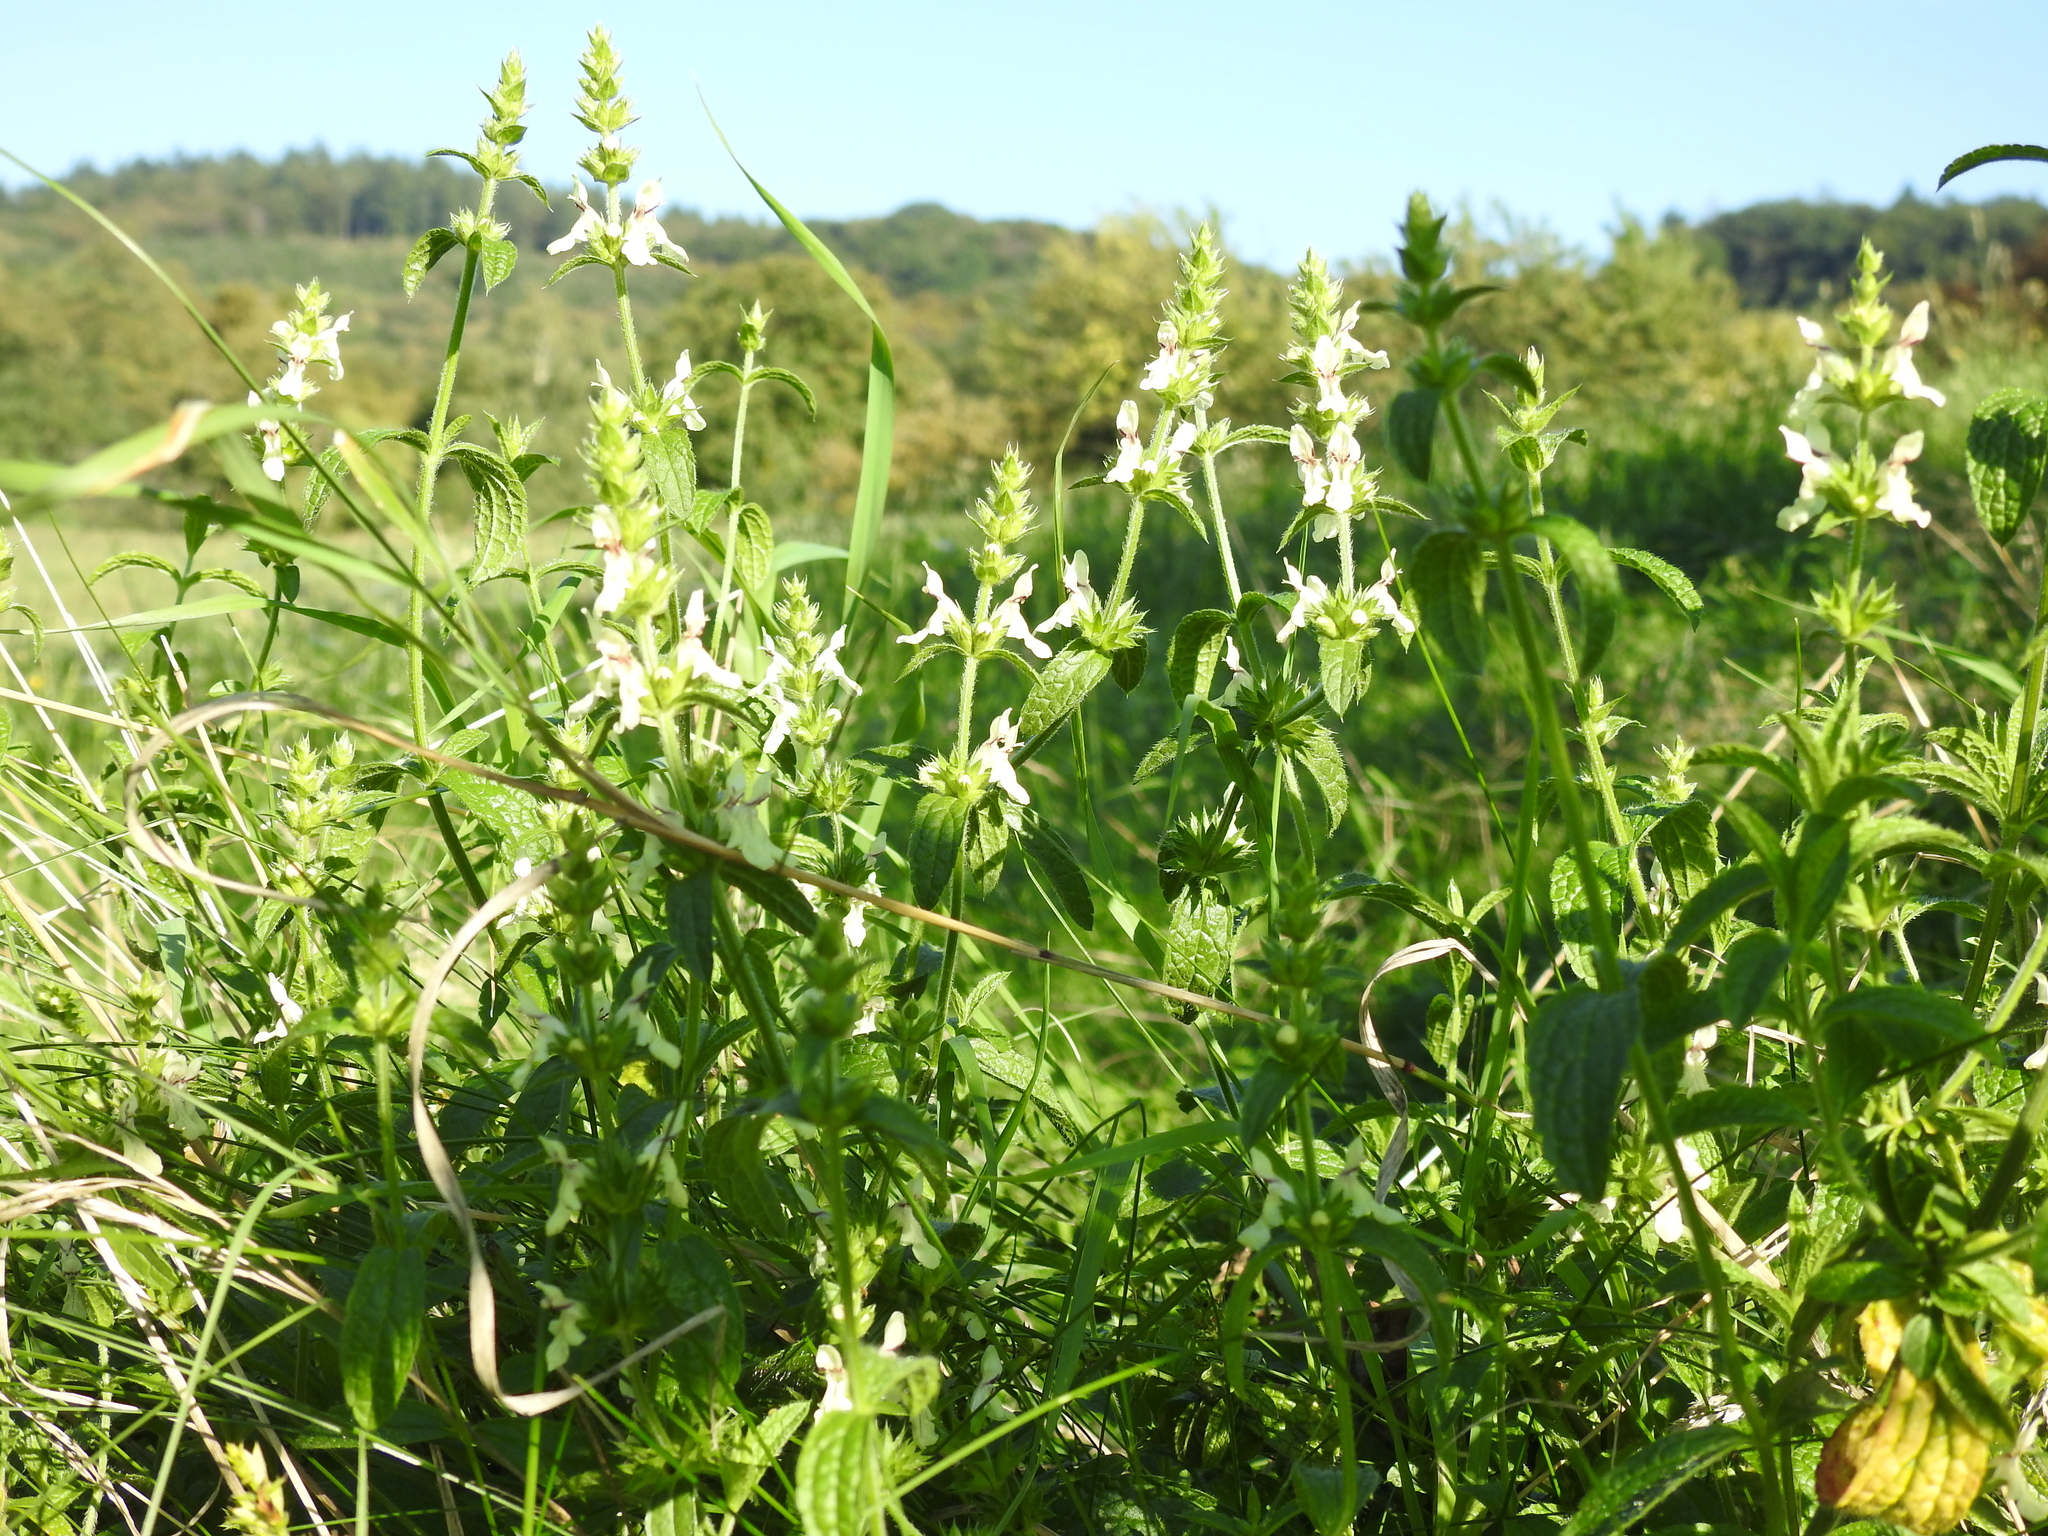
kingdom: Plantae
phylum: Tracheophyta
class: Magnoliopsida
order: Lamiales
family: Lamiaceae
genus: Stachys
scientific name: Stachys recta
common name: Perennial yellow-woundwort
